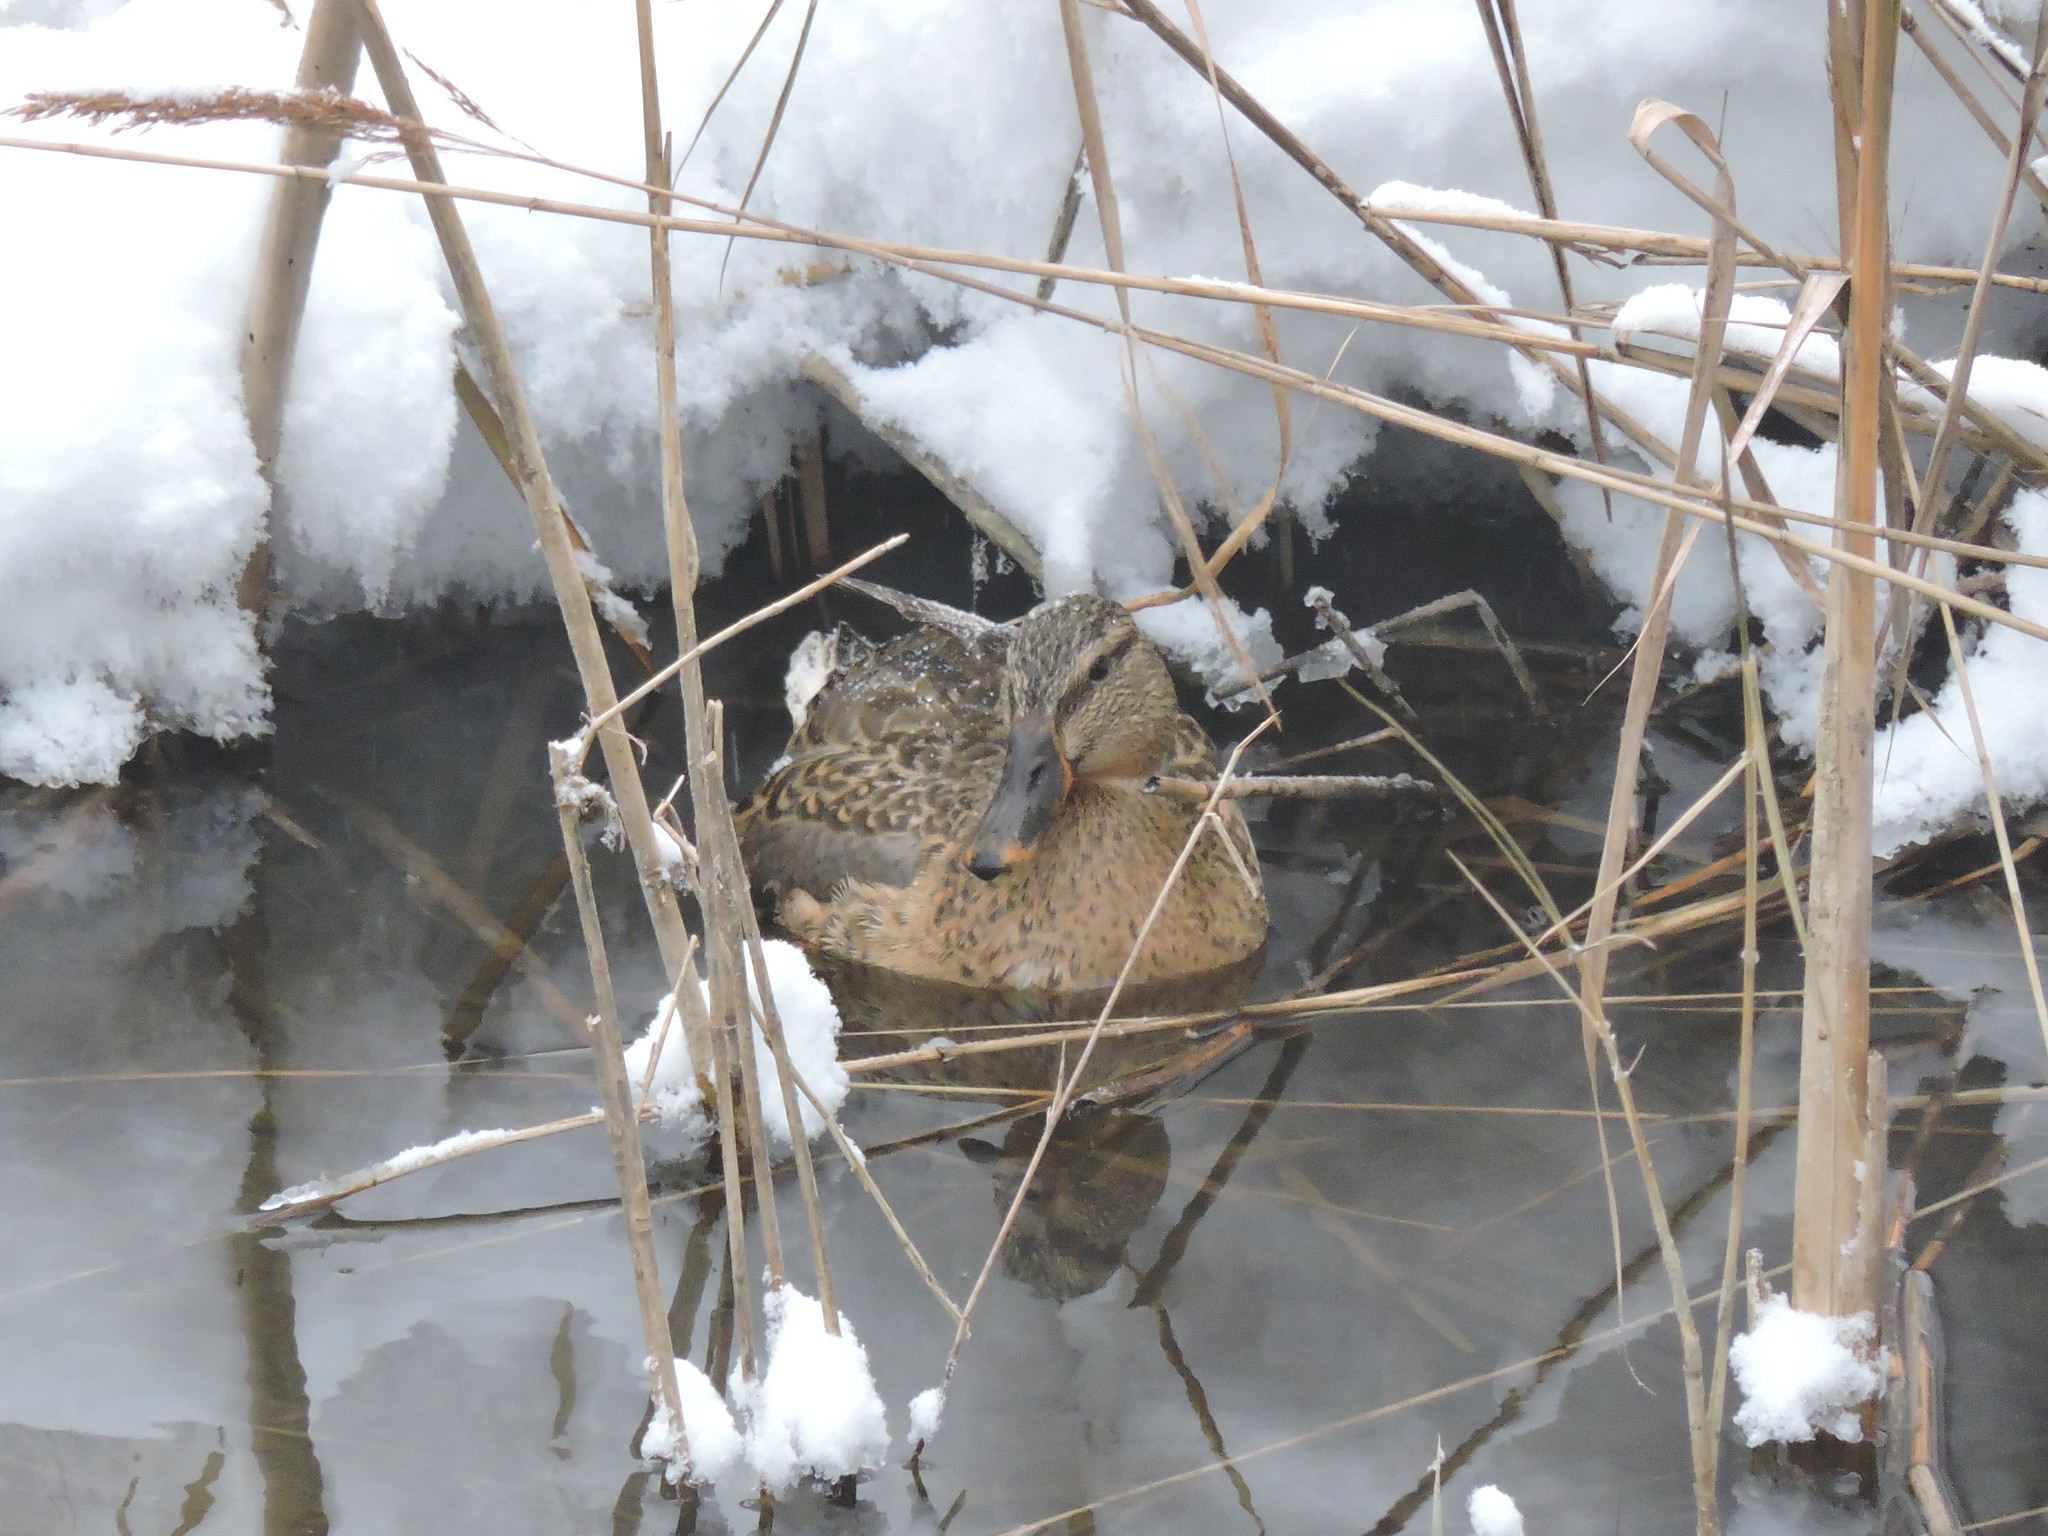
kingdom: Animalia
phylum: Chordata
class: Aves
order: Anseriformes
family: Anatidae
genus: Anas
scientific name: Anas platyrhynchos
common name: Mallard
